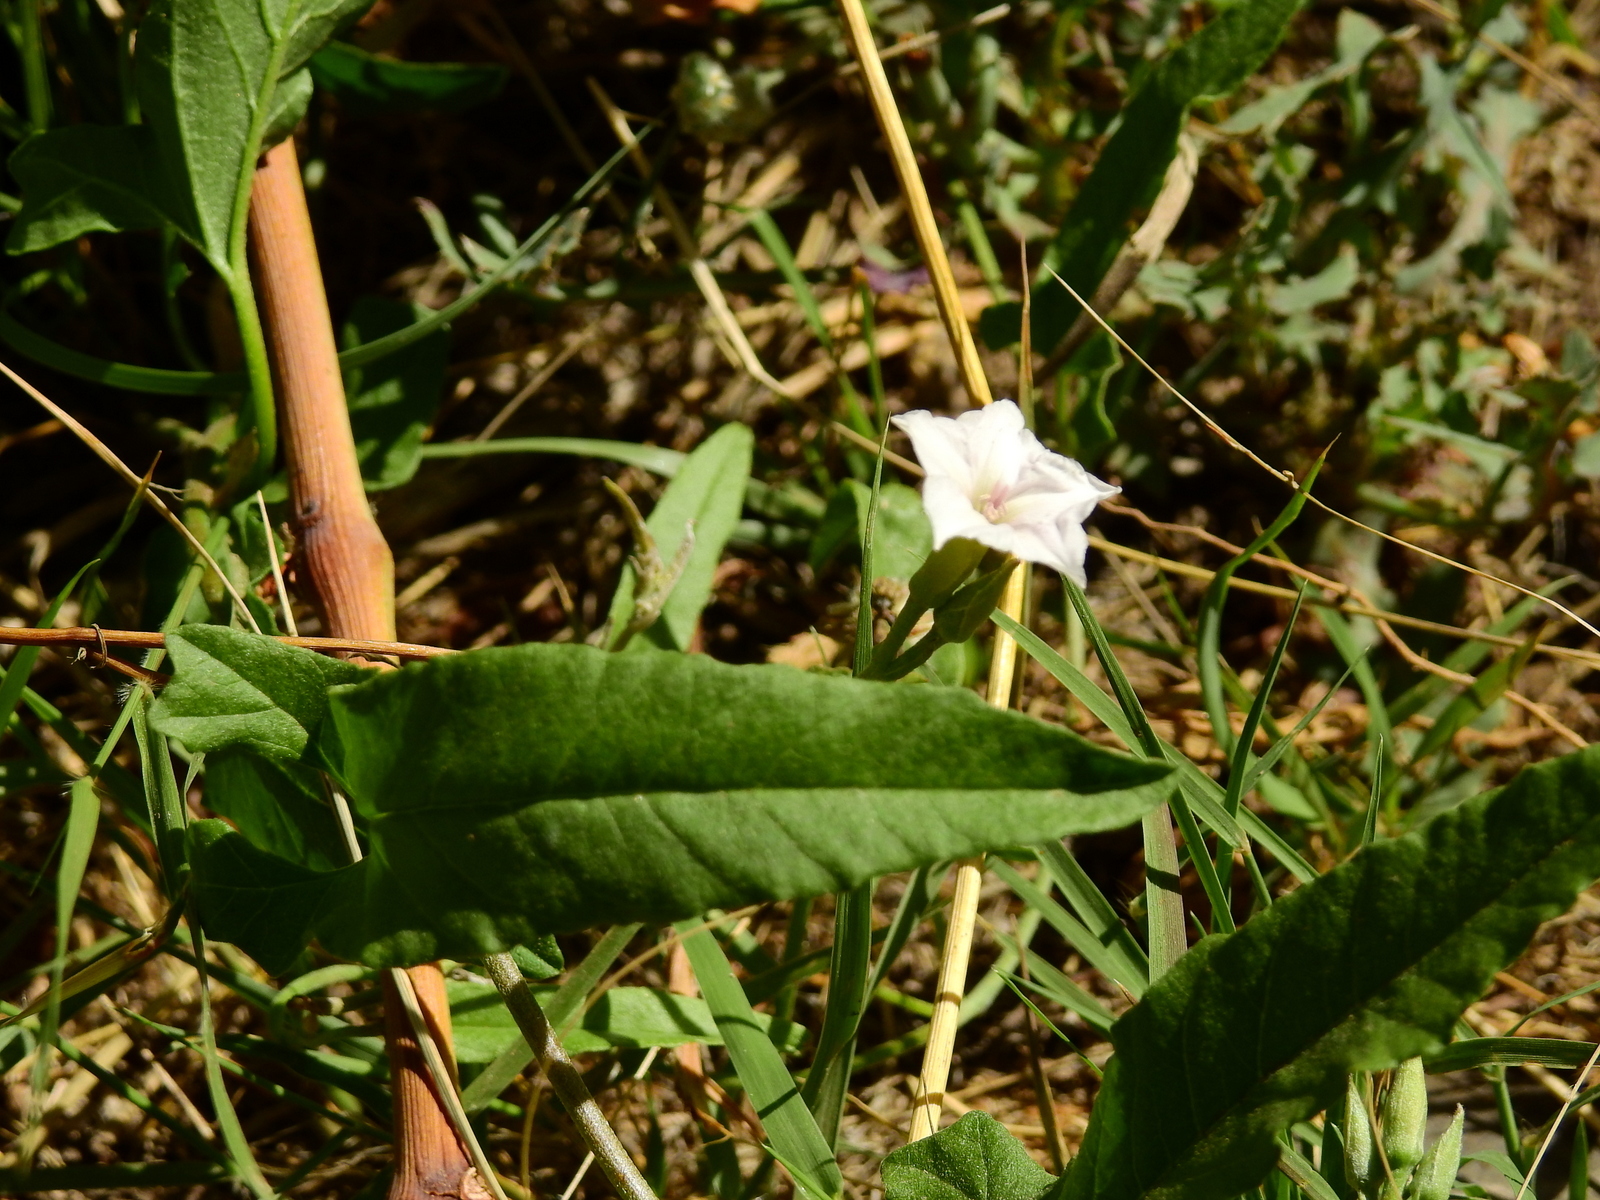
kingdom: Plantae
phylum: Tracheophyta
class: Magnoliopsida
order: Solanales
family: Convolvulaceae
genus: Convolvulus
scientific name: Convolvulus bonariensis
